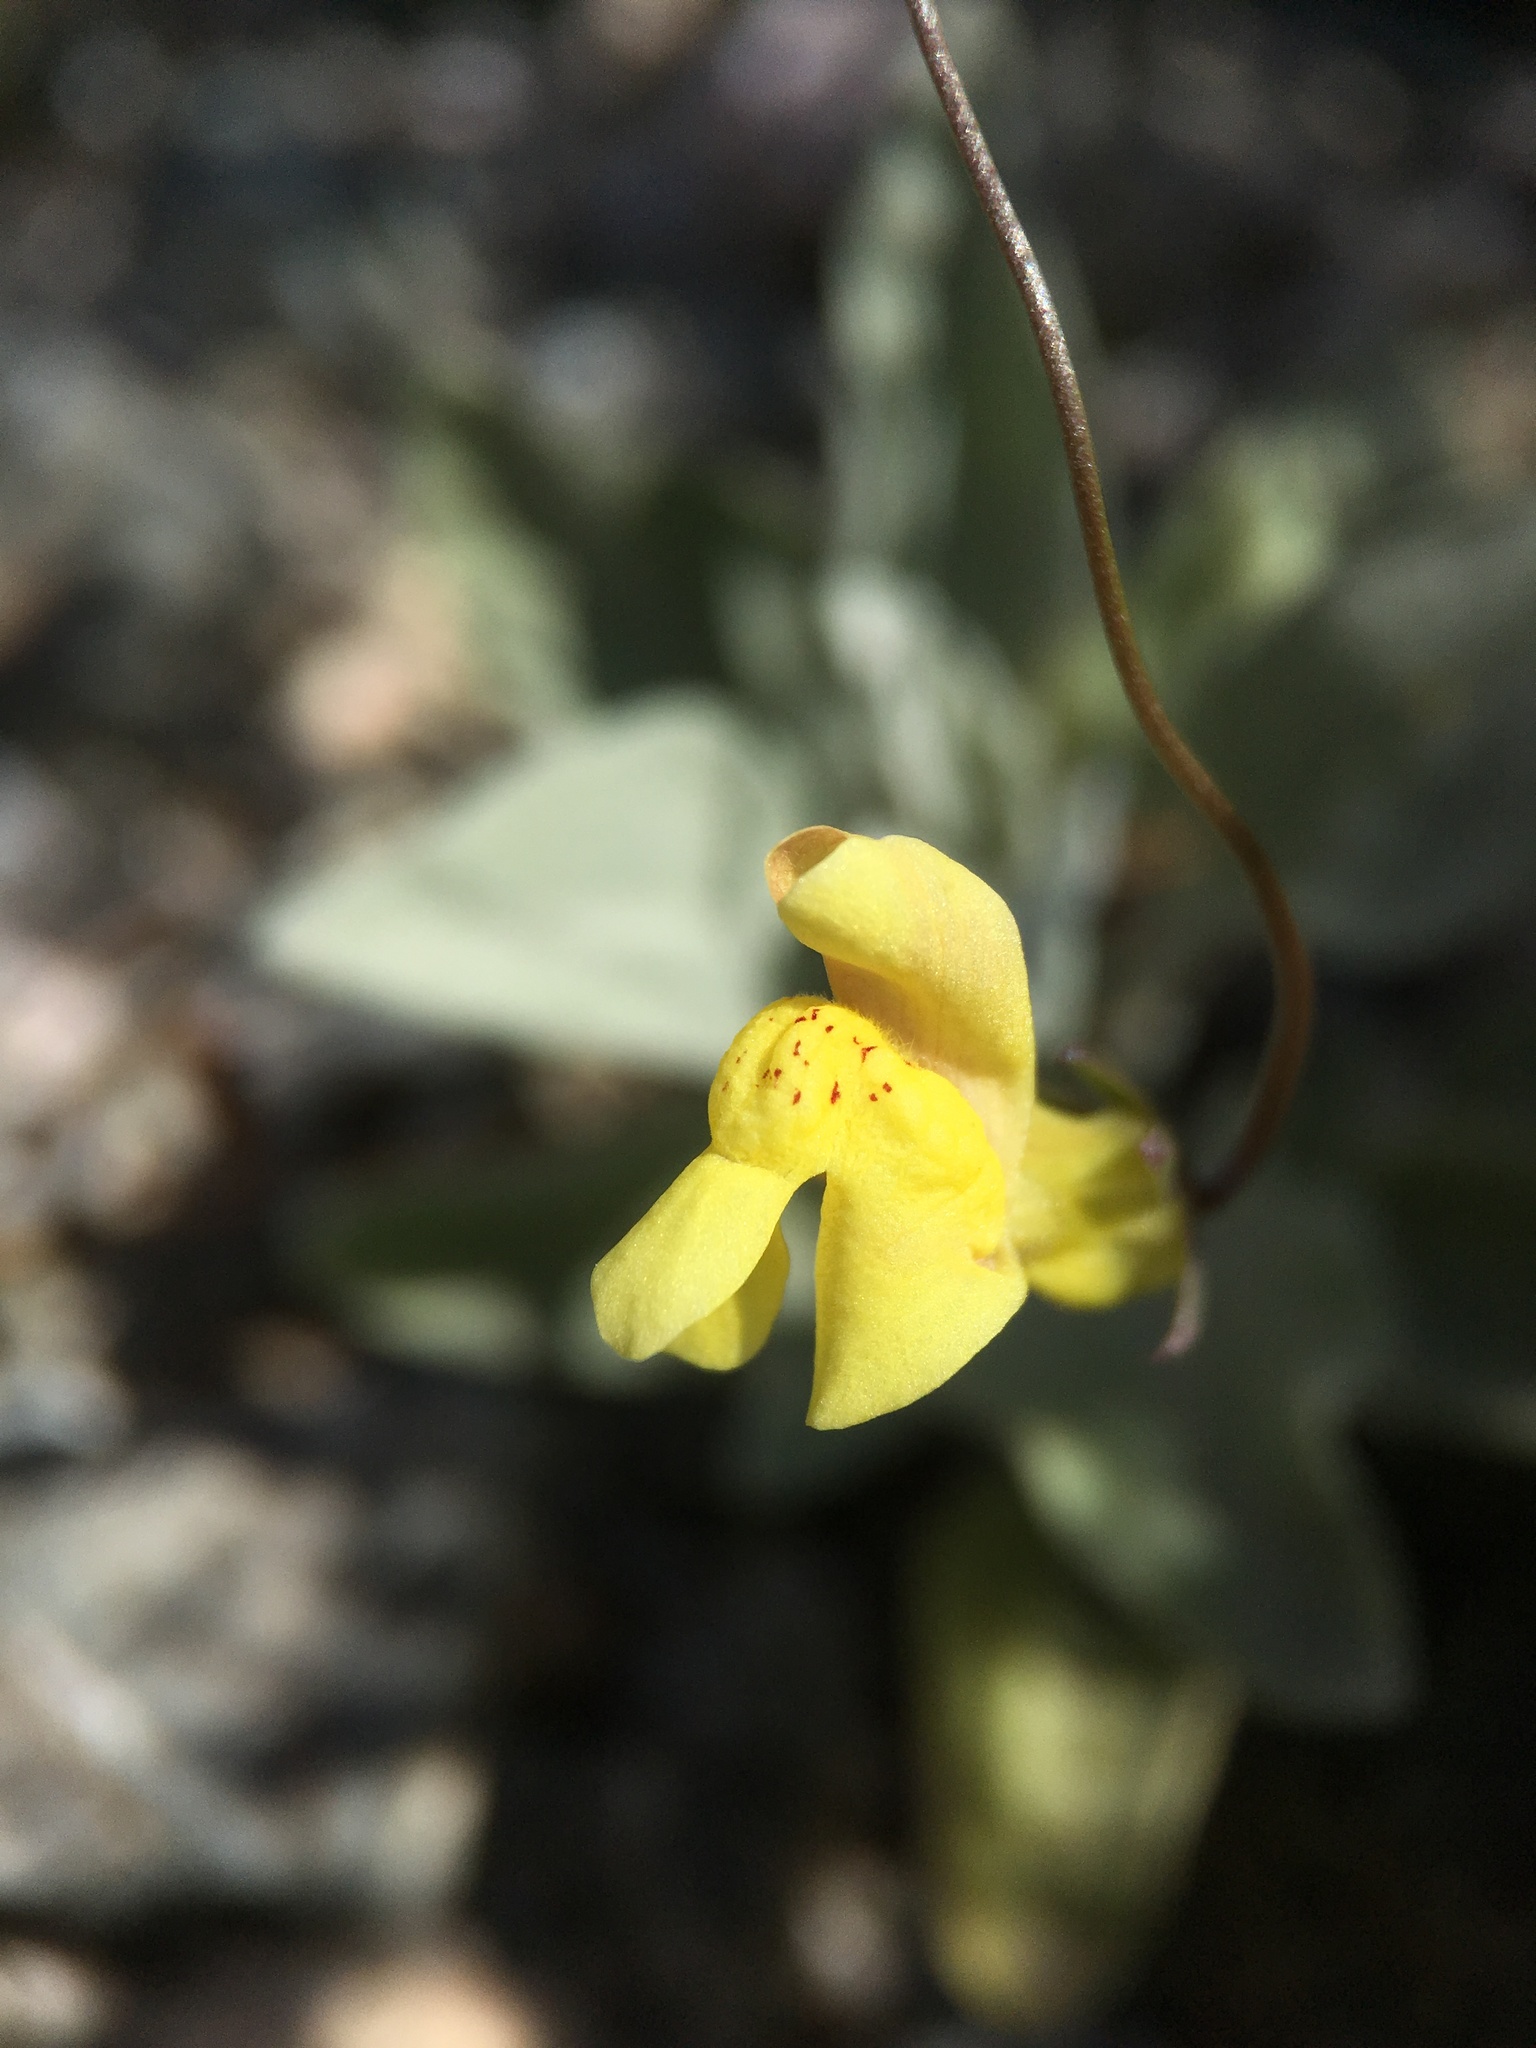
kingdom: Plantae
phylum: Tracheophyta
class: Magnoliopsida
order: Lamiales
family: Plantaginaceae
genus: Neogaerrhinum
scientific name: Neogaerrhinum filipes
